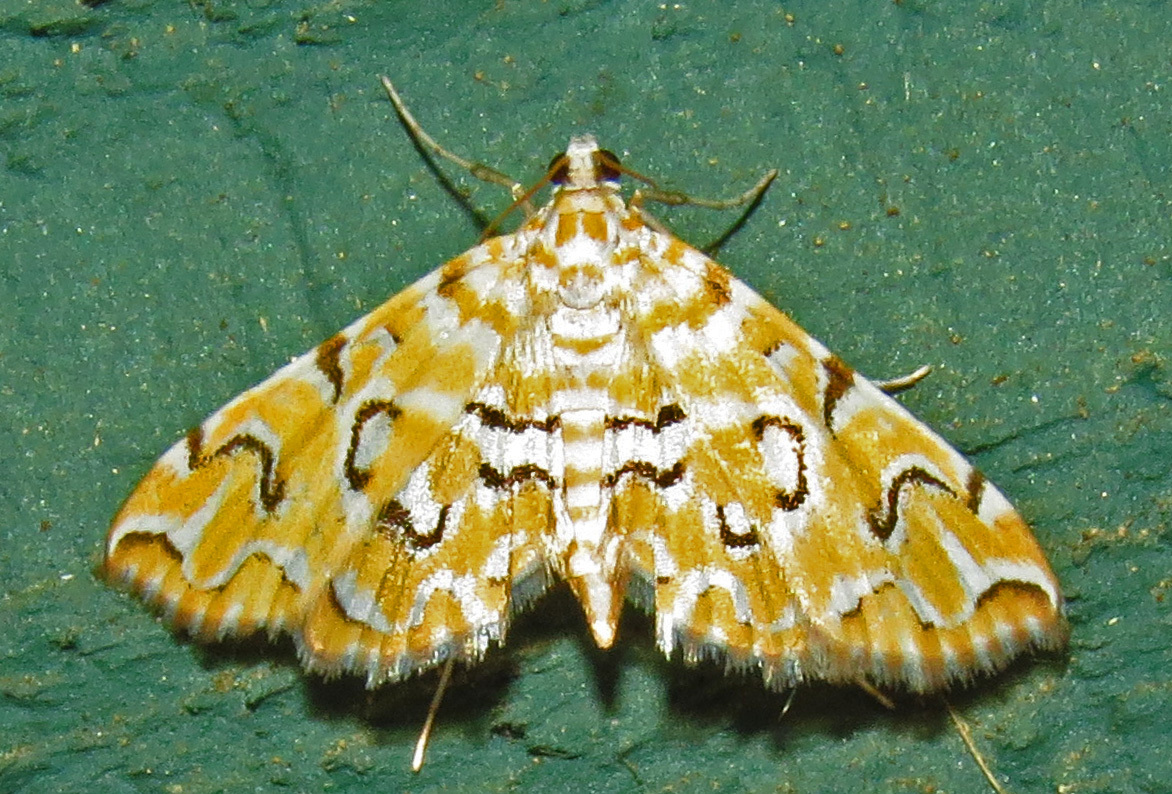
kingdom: Animalia
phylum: Arthropoda
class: Insecta
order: Lepidoptera
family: Crambidae
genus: Elophila
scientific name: Elophila icciusalis
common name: Pondside pyralid moth
